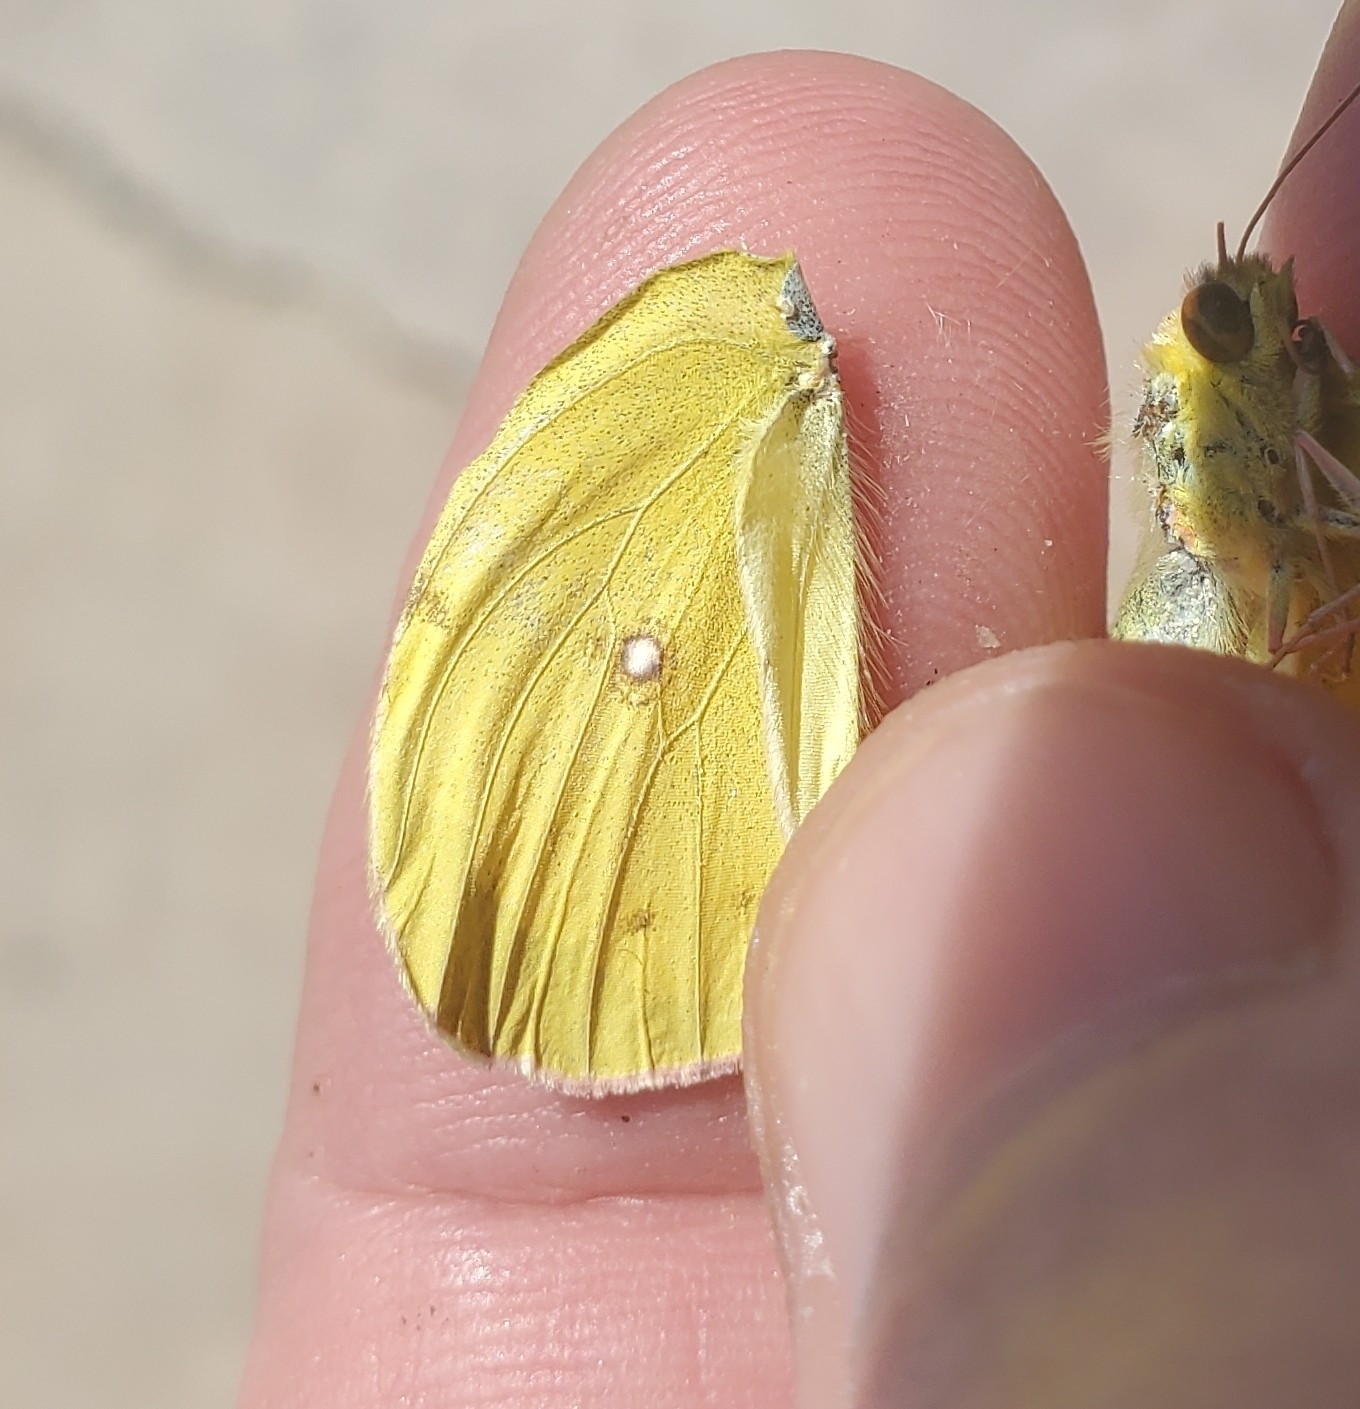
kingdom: Animalia
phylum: Arthropoda
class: Insecta
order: Lepidoptera
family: Pieridae
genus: Colias
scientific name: Colias eurytheme
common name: Alfalfa butterfly
